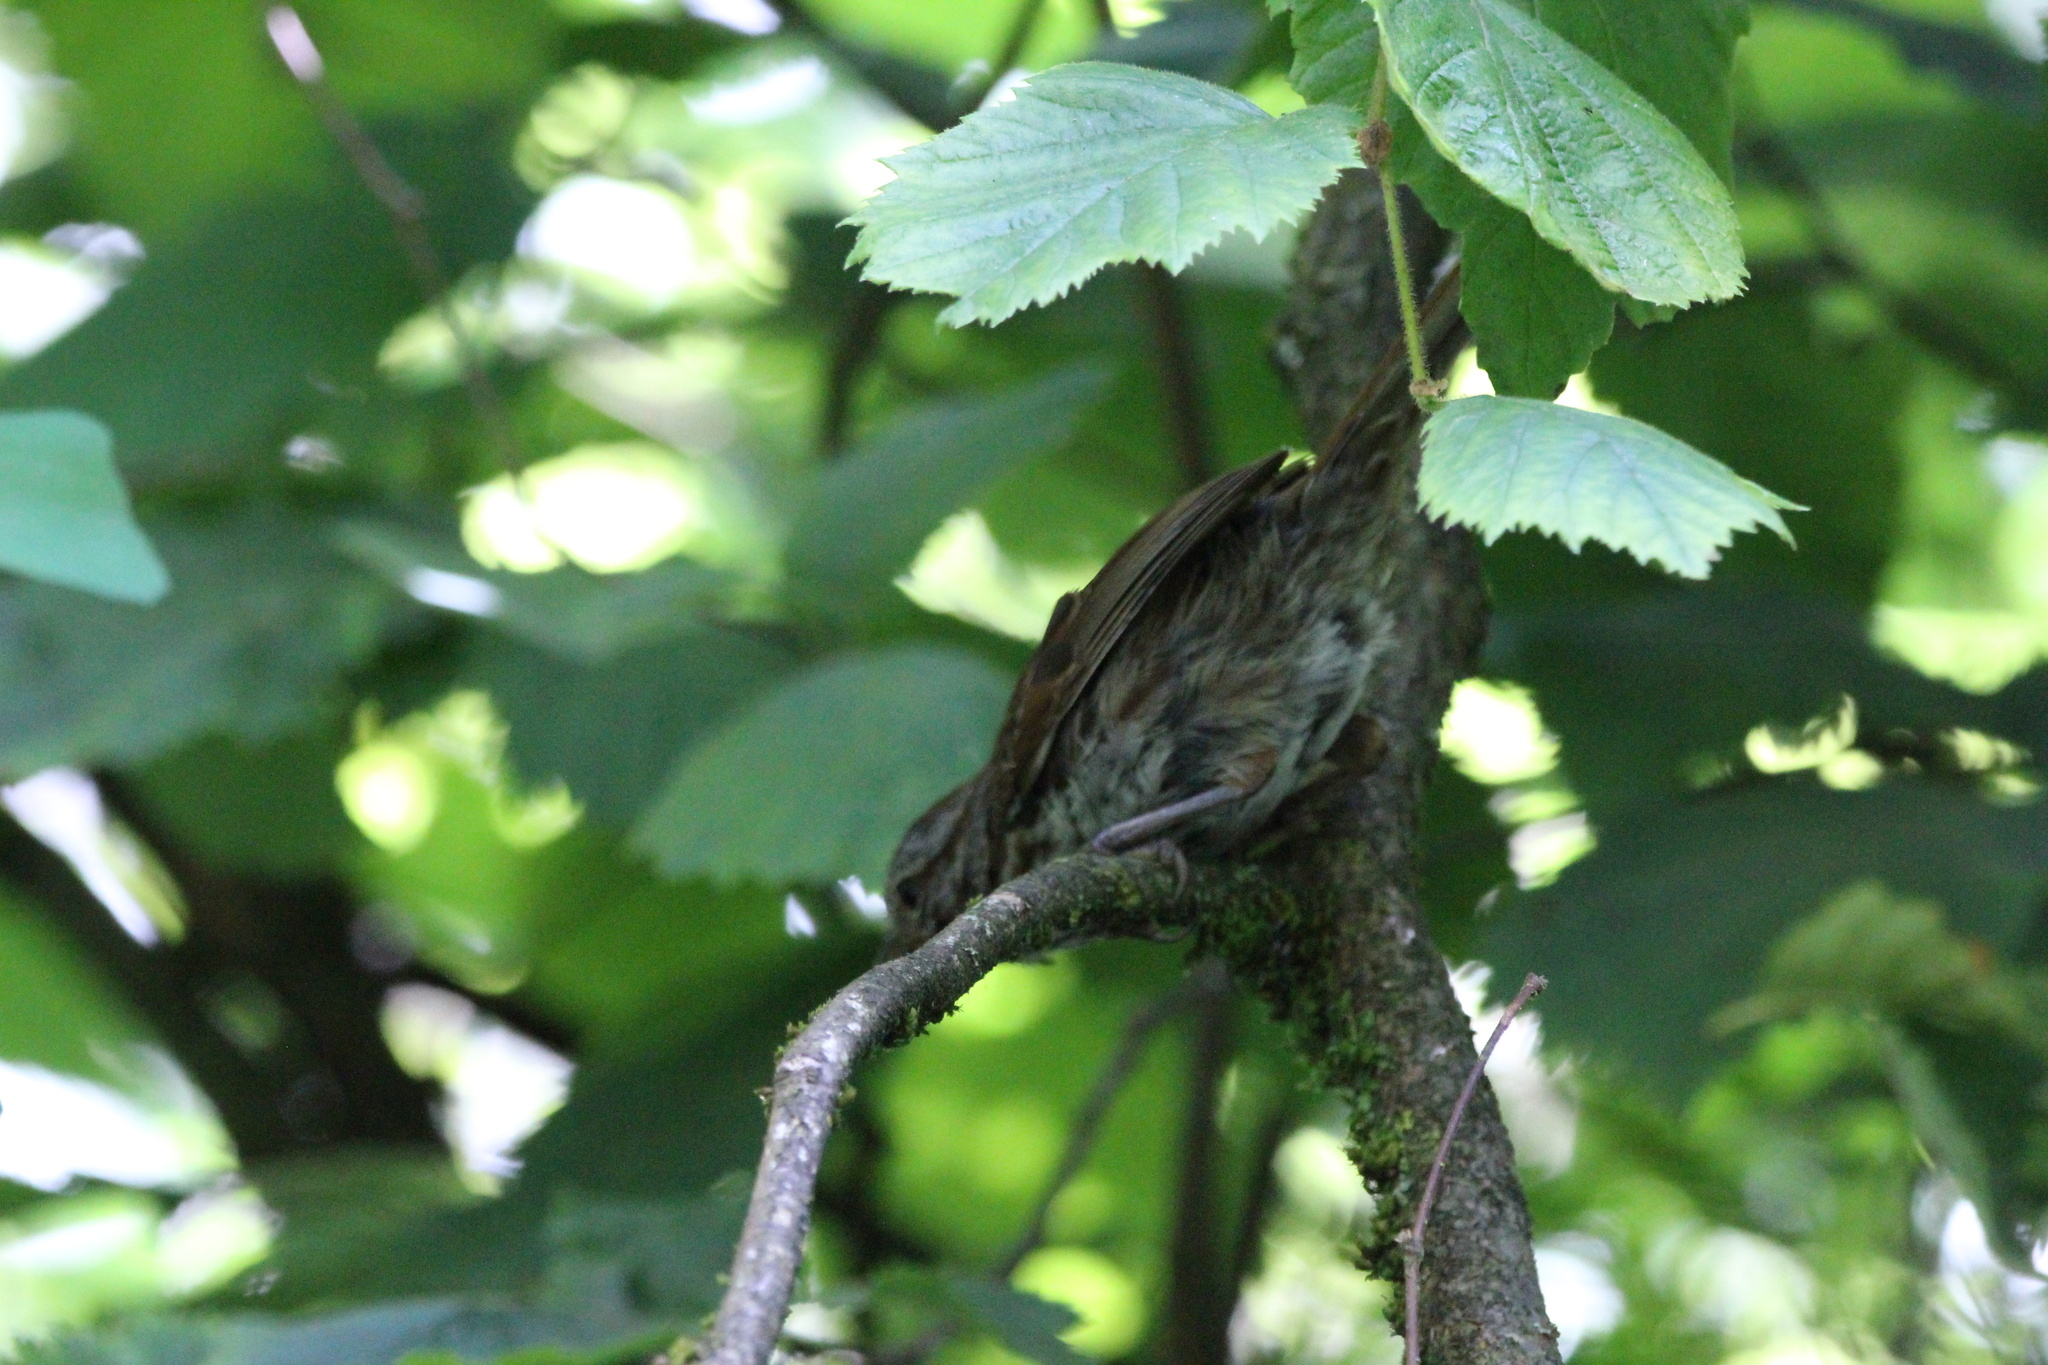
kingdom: Animalia
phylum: Chordata
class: Aves
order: Passeriformes
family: Passerellidae
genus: Melospiza
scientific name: Melospiza melodia
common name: Song sparrow
